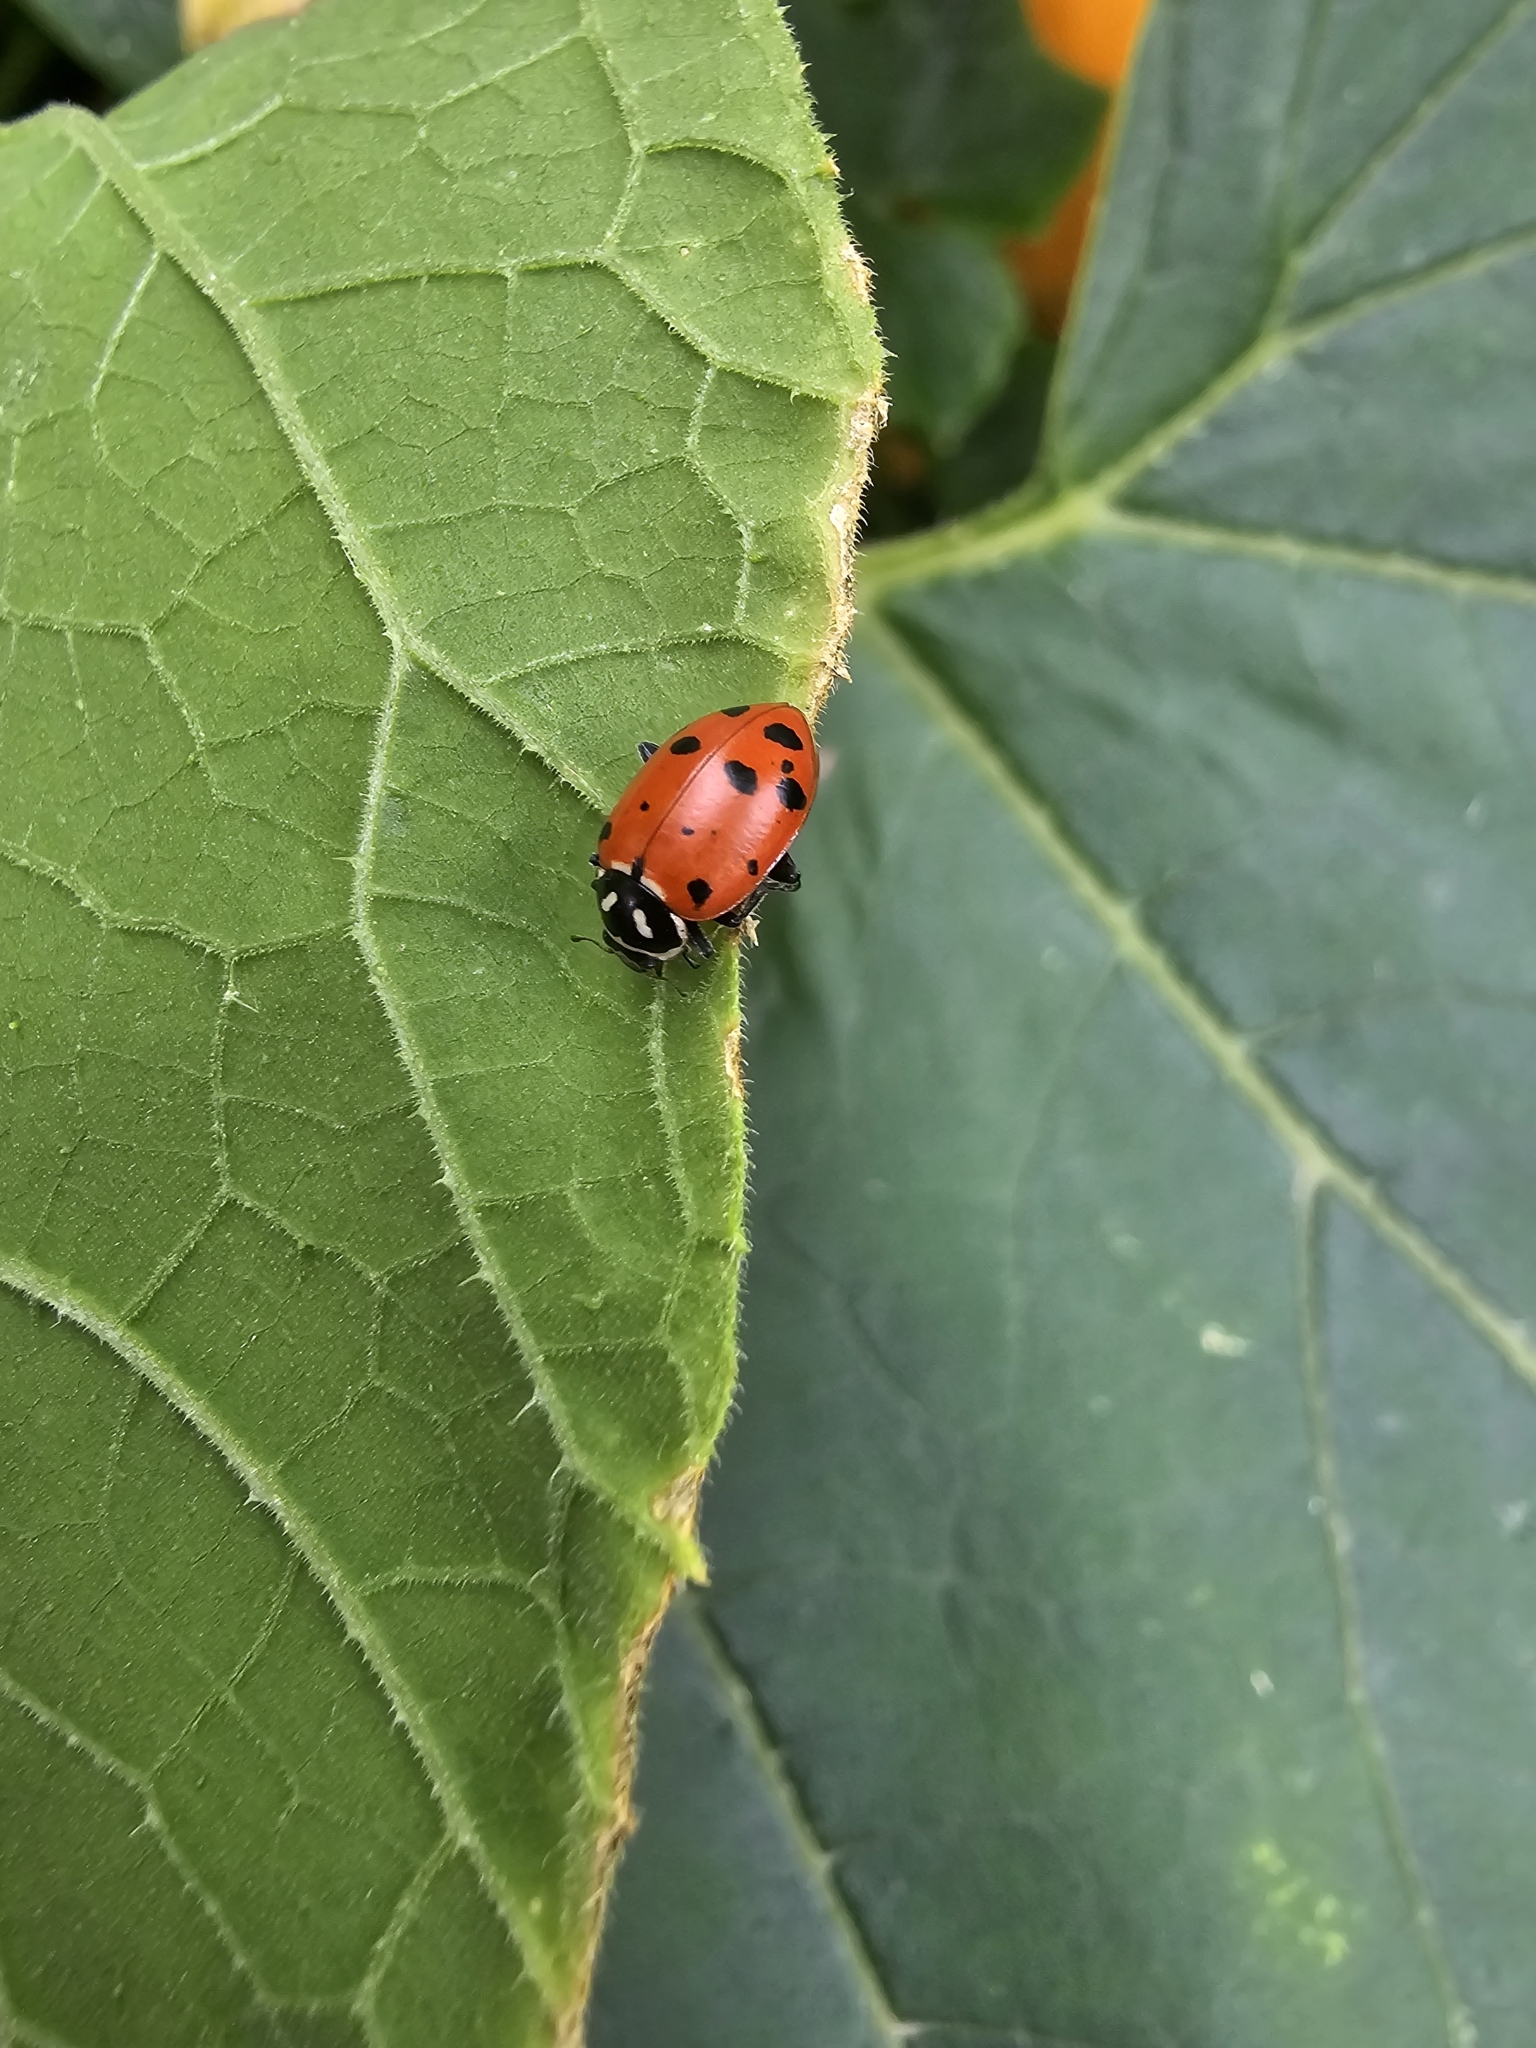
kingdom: Animalia
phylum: Arthropoda
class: Insecta
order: Coleoptera
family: Coccinellidae
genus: Hippodamia
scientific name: Hippodamia convergens
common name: Convergent lady beetle
